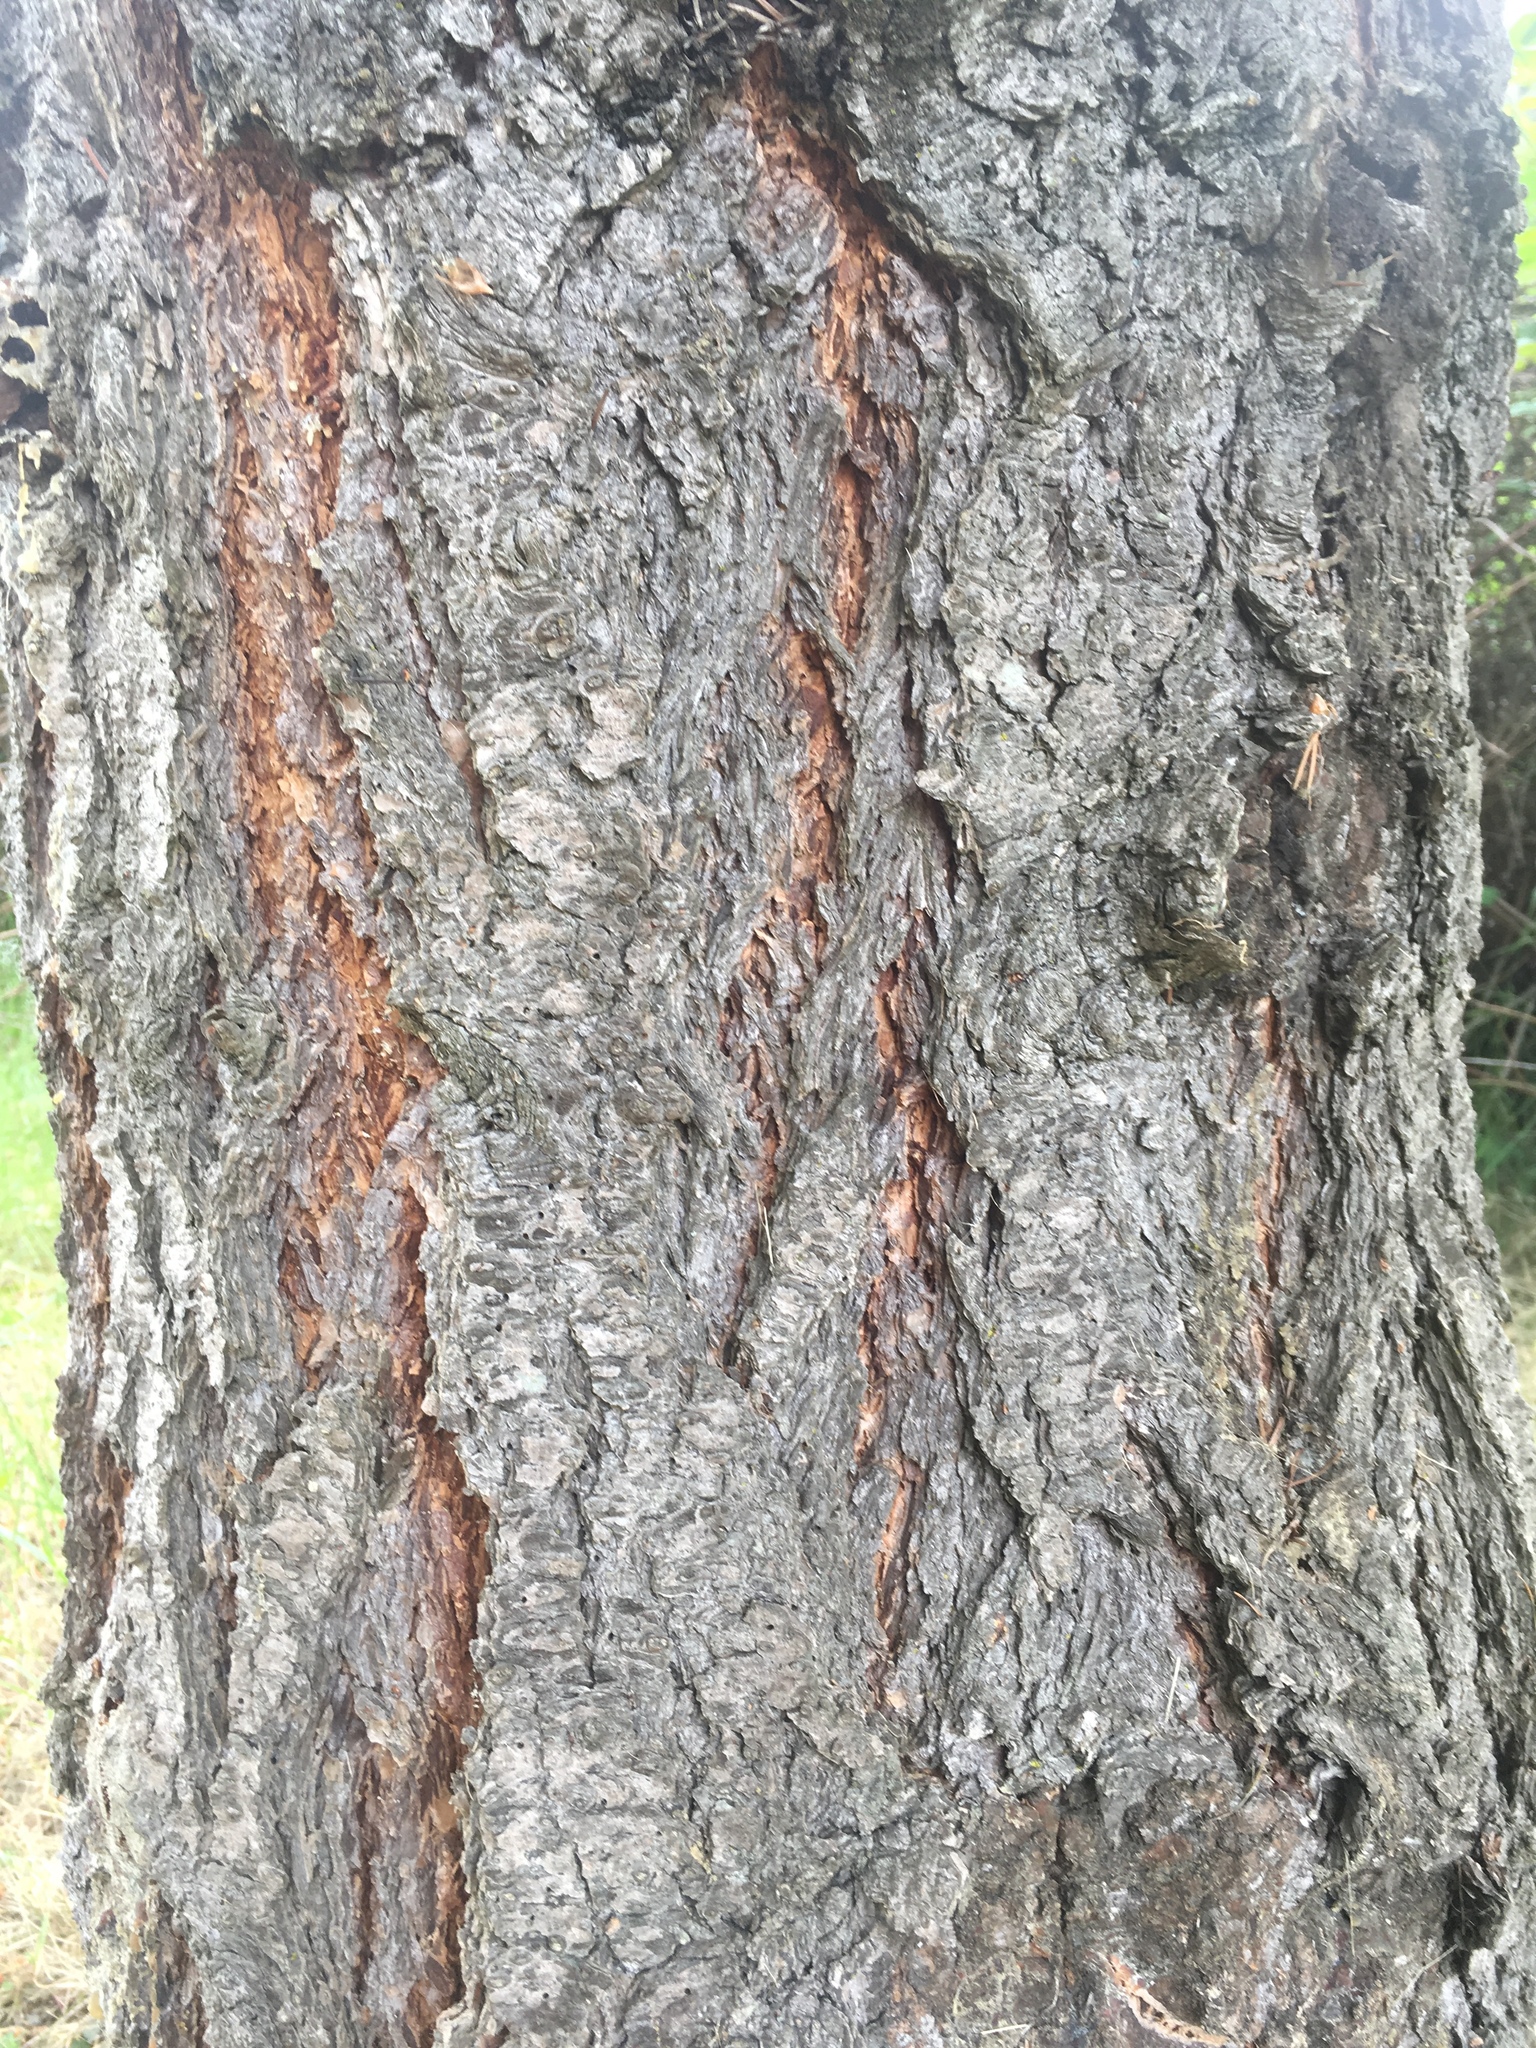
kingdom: Plantae
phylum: Tracheophyta
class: Pinopsida
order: Pinales
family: Pinaceae
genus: Pseudotsuga
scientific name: Pseudotsuga menziesii
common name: Douglas fir
